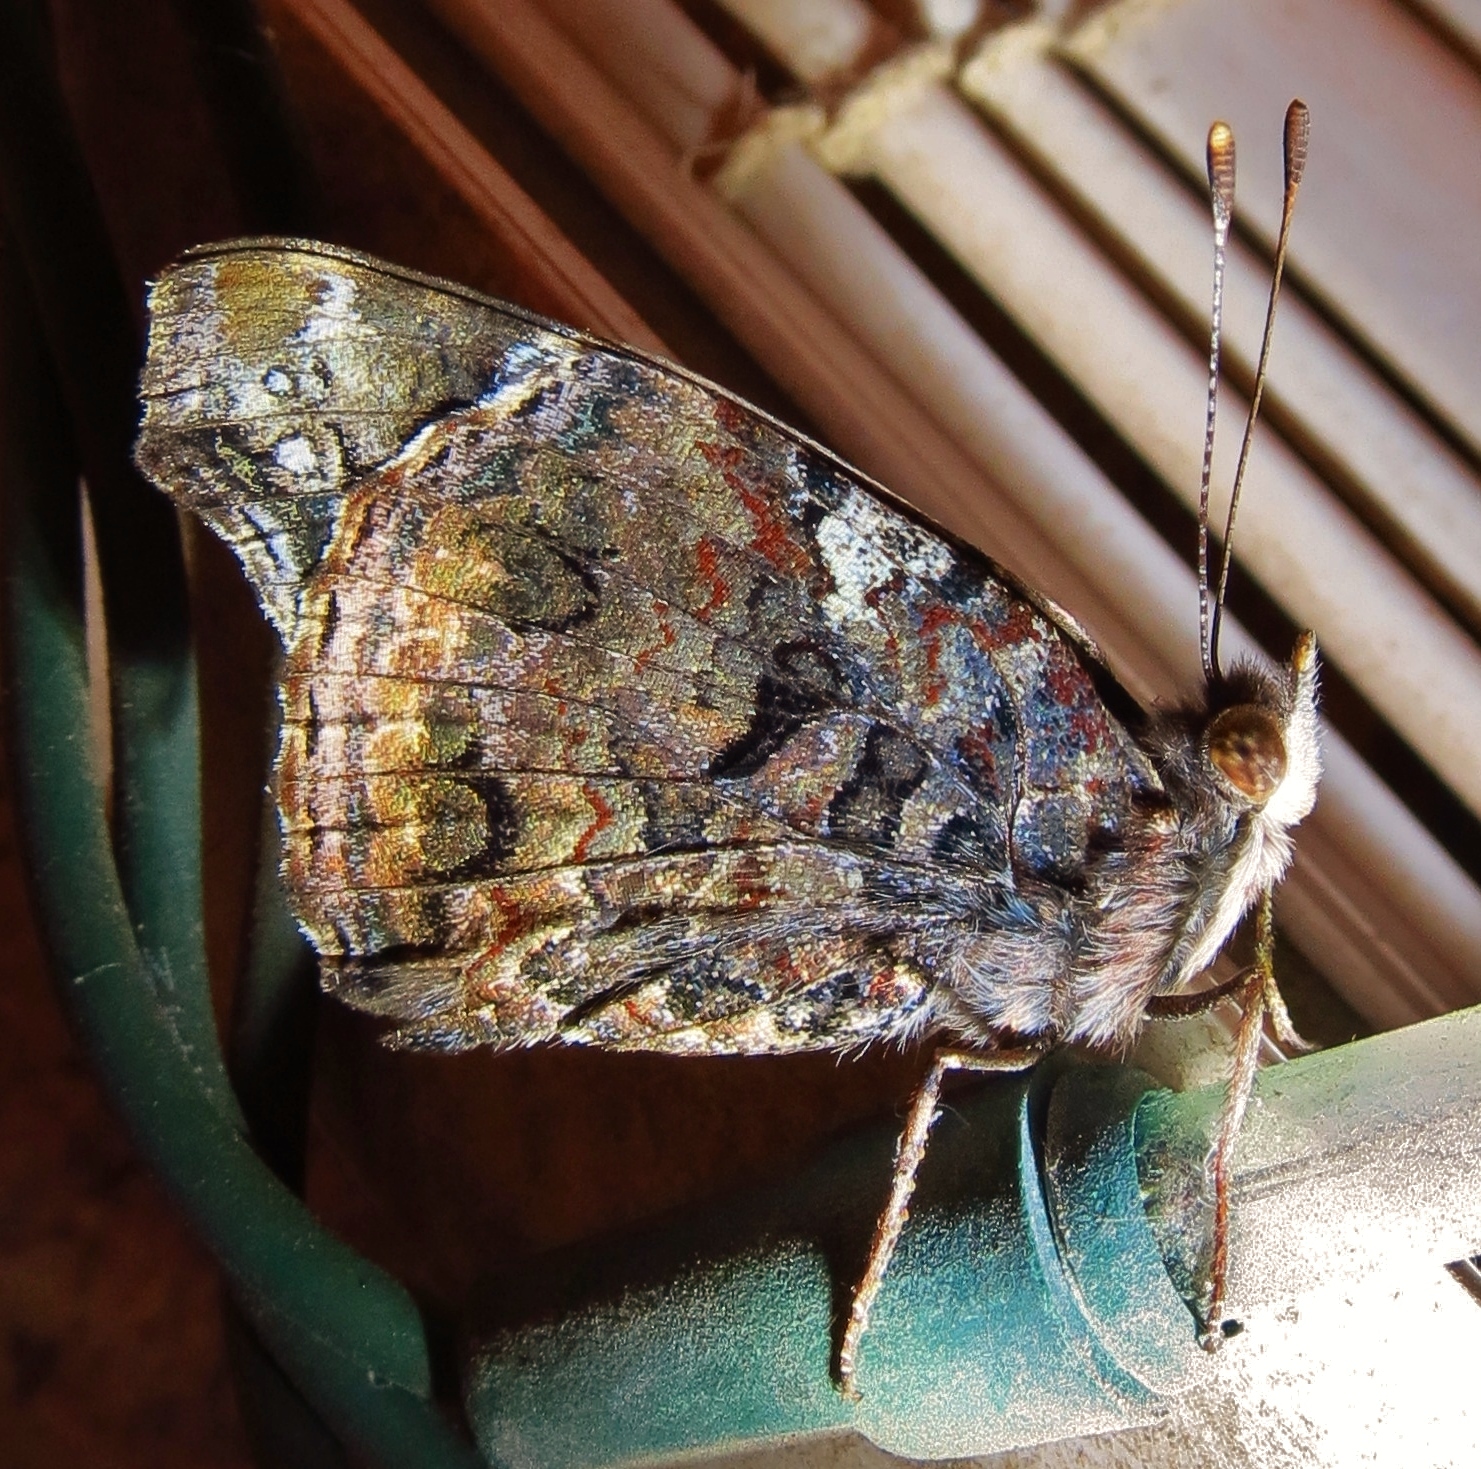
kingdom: Animalia
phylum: Arthropoda
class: Insecta
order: Lepidoptera
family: Nymphalidae
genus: Vanessa
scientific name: Vanessa atalanta
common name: Red admiral
